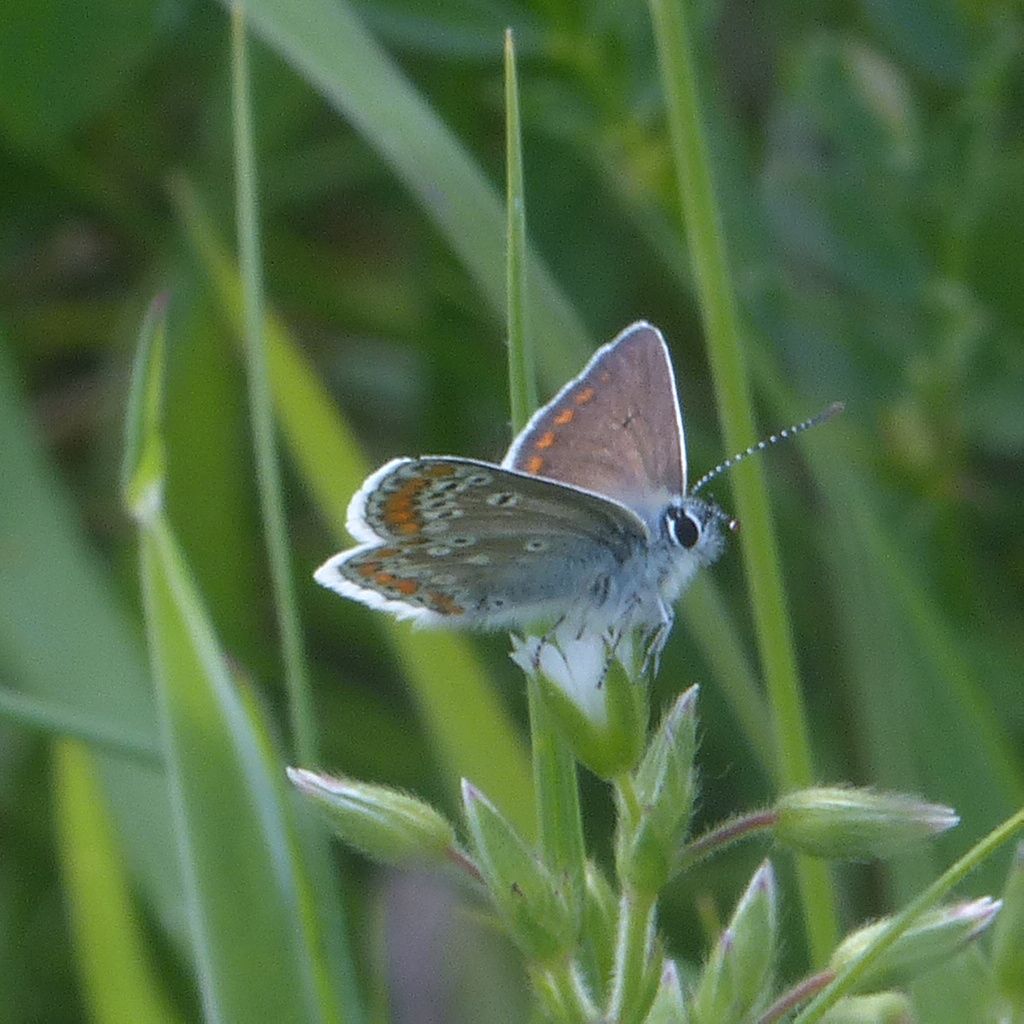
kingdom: Animalia
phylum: Arthropoda
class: Insecta
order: Lepidoptera
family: Lycaenidae
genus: Aricia
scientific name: Aricia agestis
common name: Brown argus
